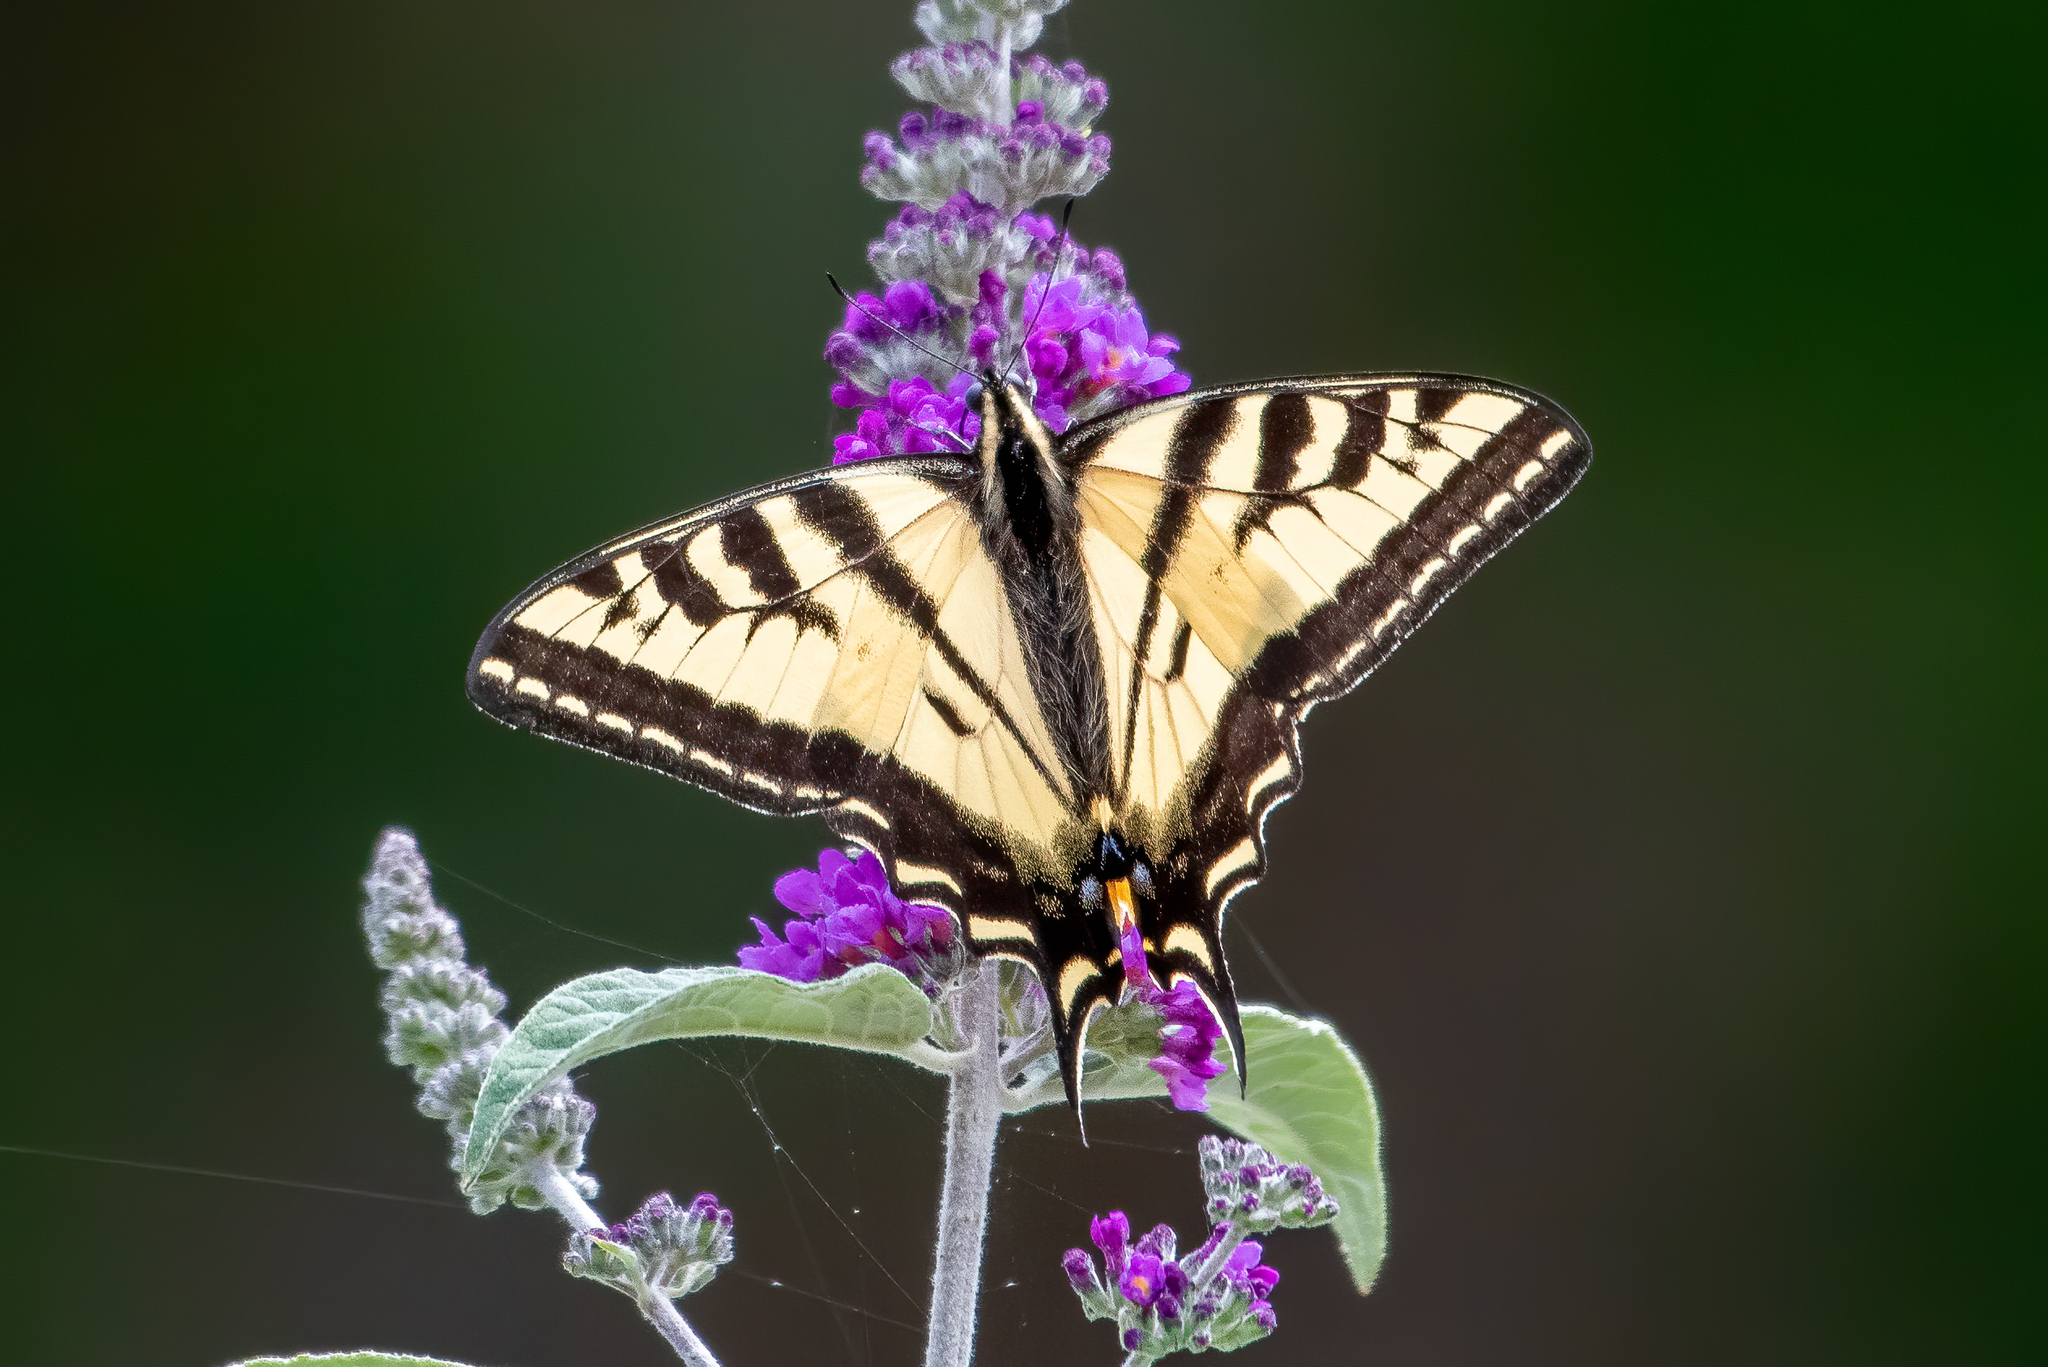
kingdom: Animalia
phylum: Arthropoda
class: Insecta
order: Lepidoptera
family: Papilionidae
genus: Papilio
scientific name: Papilio rutulus
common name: Western tiger swallowtail
